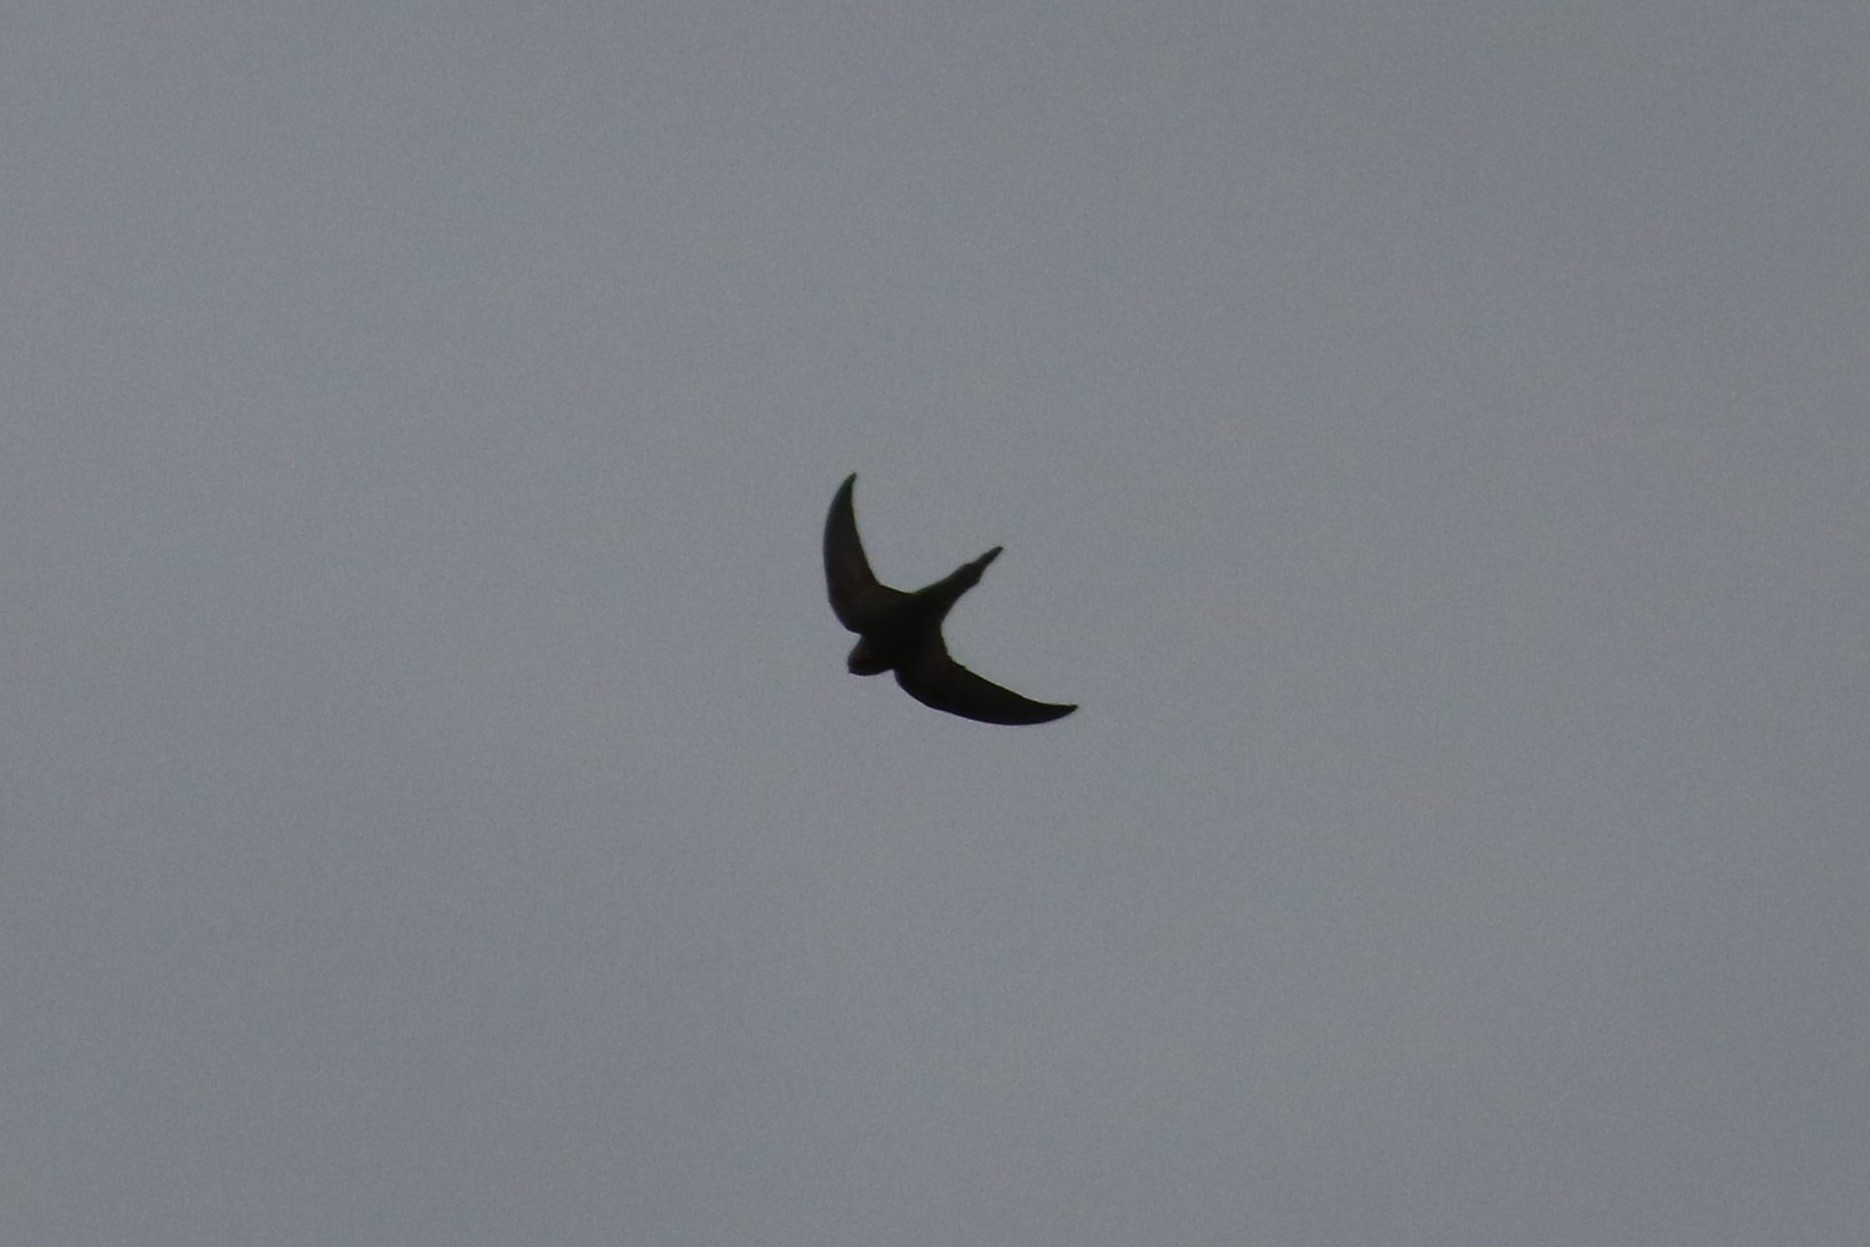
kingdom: Animalia
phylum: Chordata
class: Aves
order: Apodiformes
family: Apodidae
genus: Apus
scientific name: Apus apus
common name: Common swift
